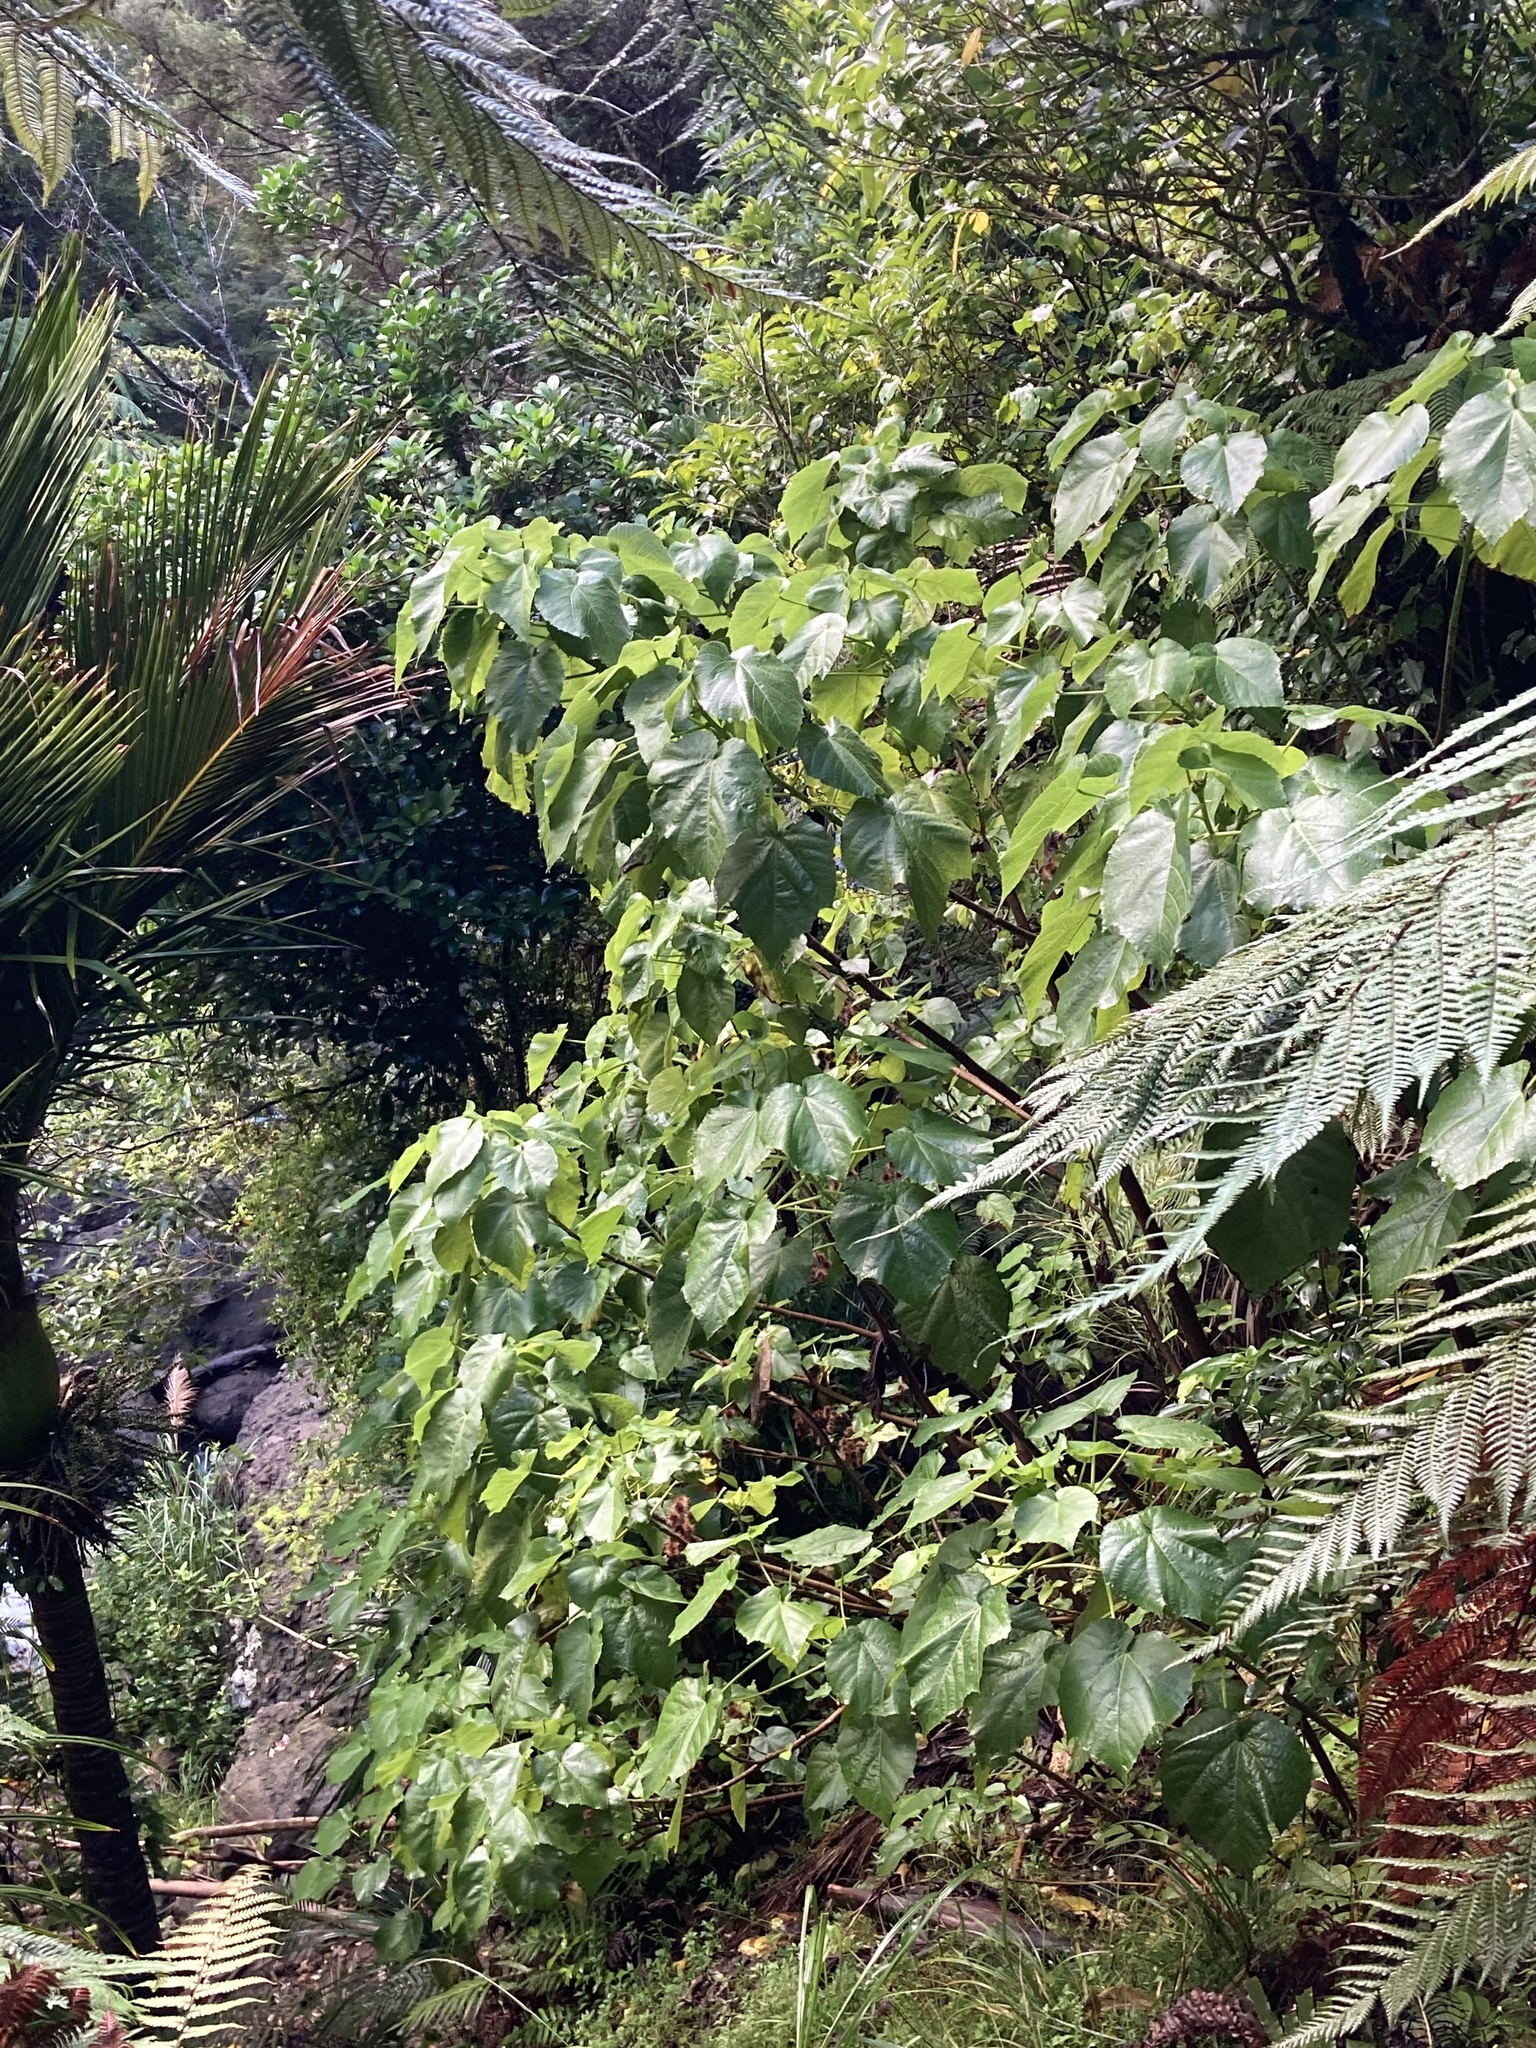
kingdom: Plantae
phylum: Tracheophyta
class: Magnoliopsida
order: Malvales
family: Malvaceae
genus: Entelea
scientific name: Entelea arborescens
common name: New zealand-mulberry
